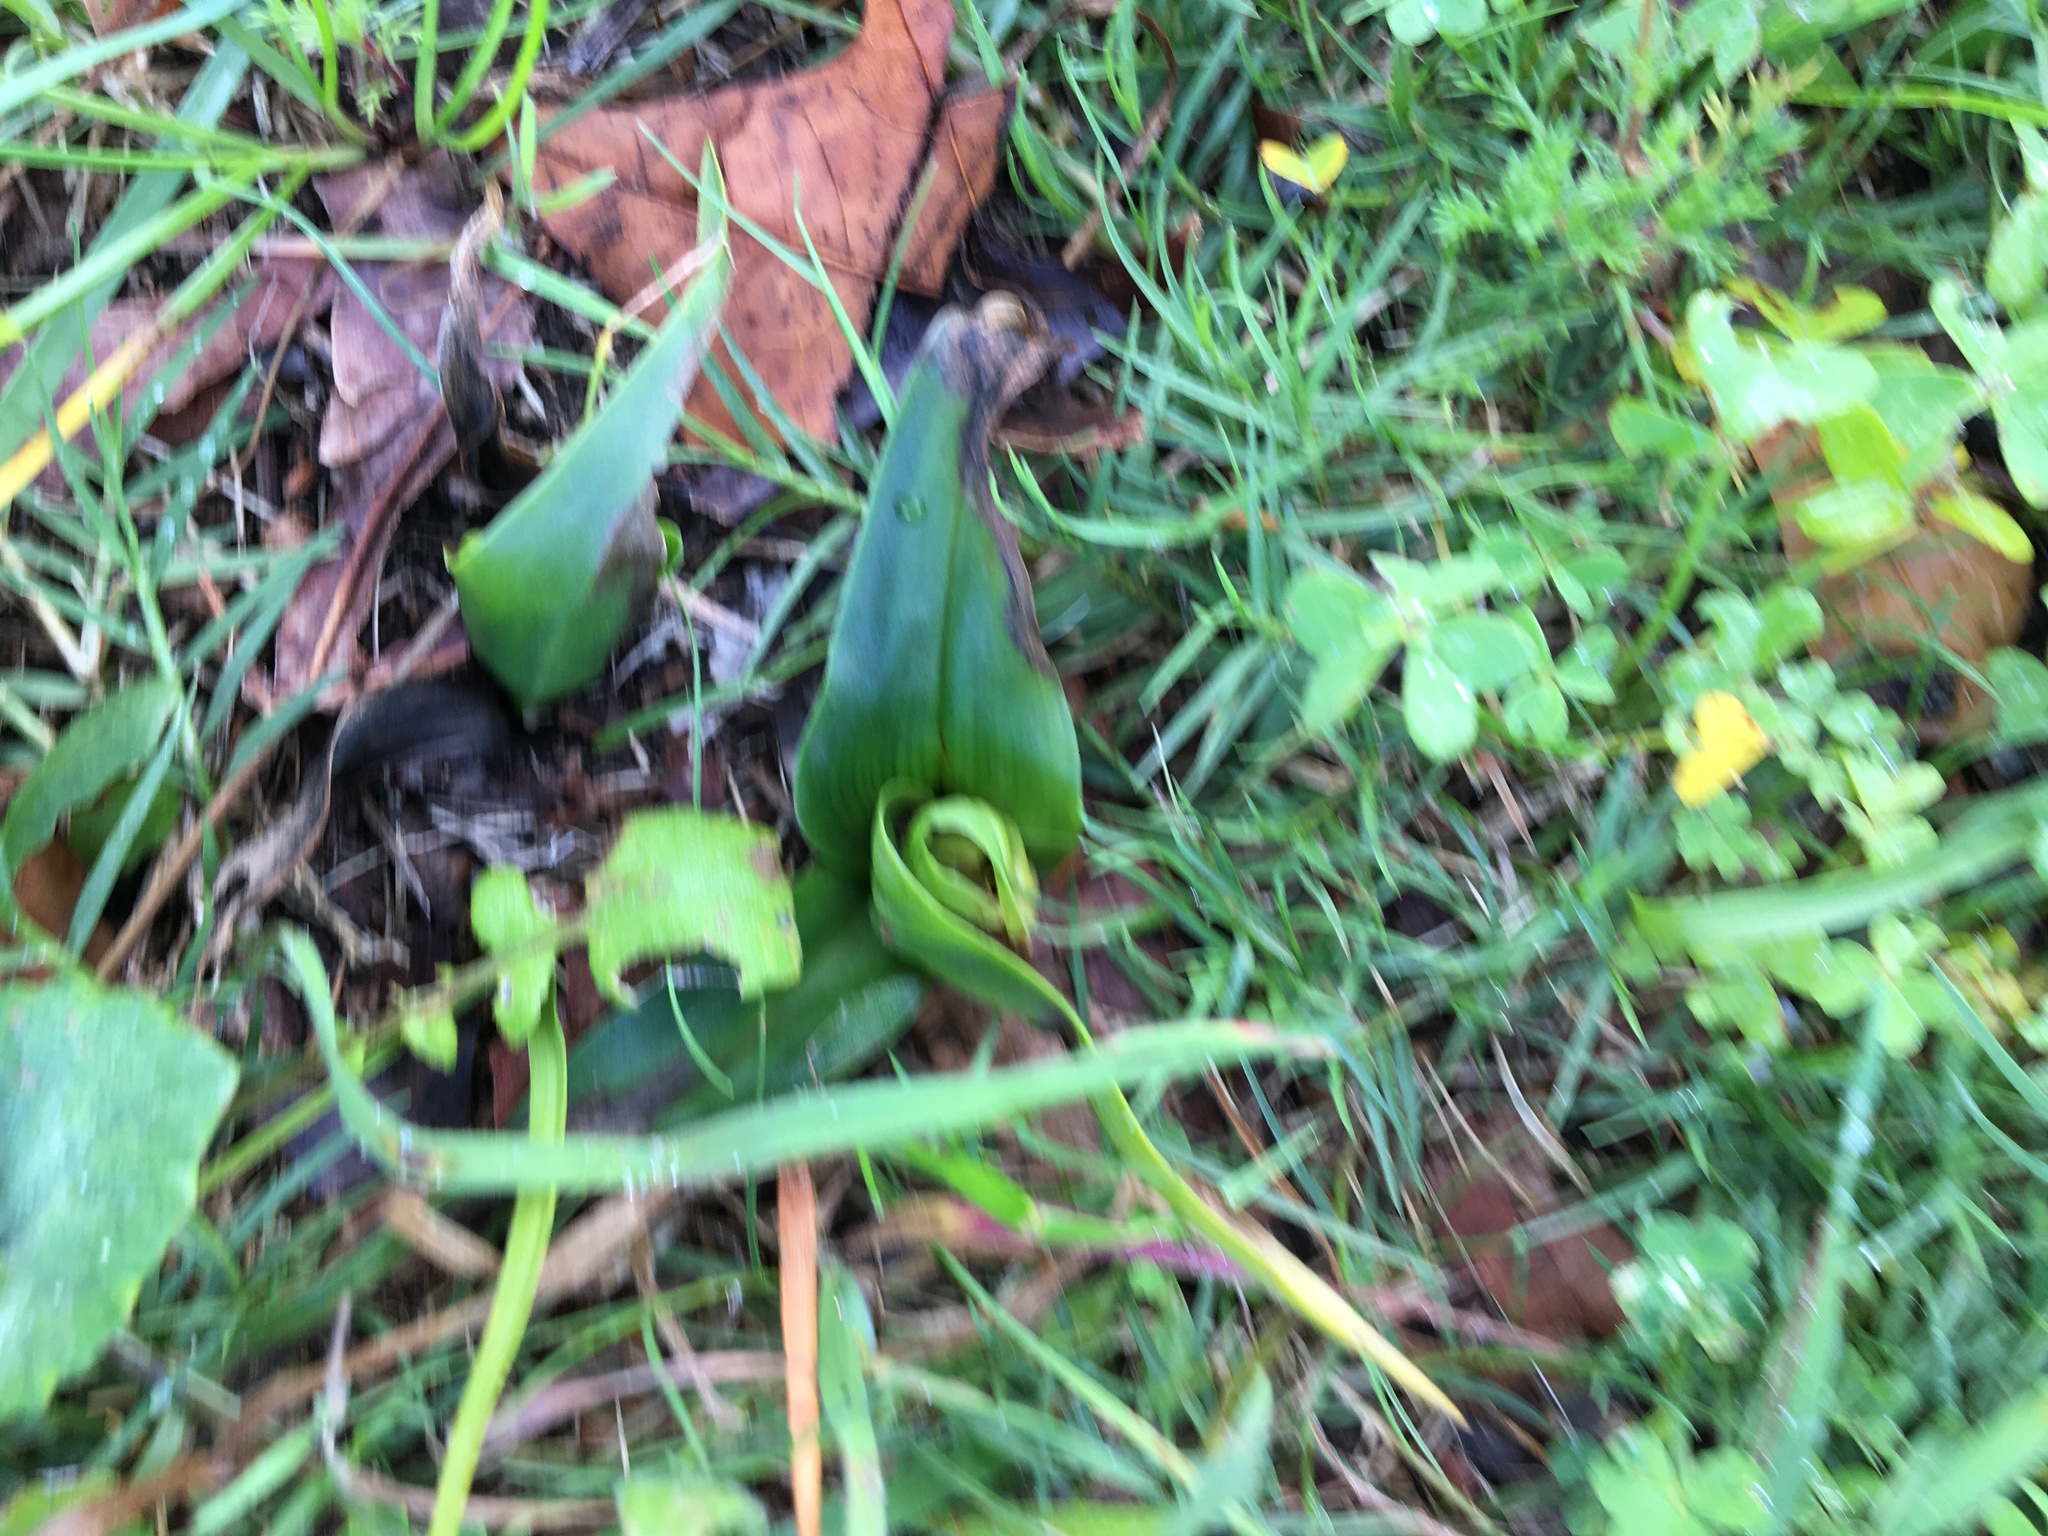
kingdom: Plantae
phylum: Tracheophyta
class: Liliopsida
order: Liliales
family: Colchicaceae
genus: Colchicum
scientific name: Colchicum eucomoides
